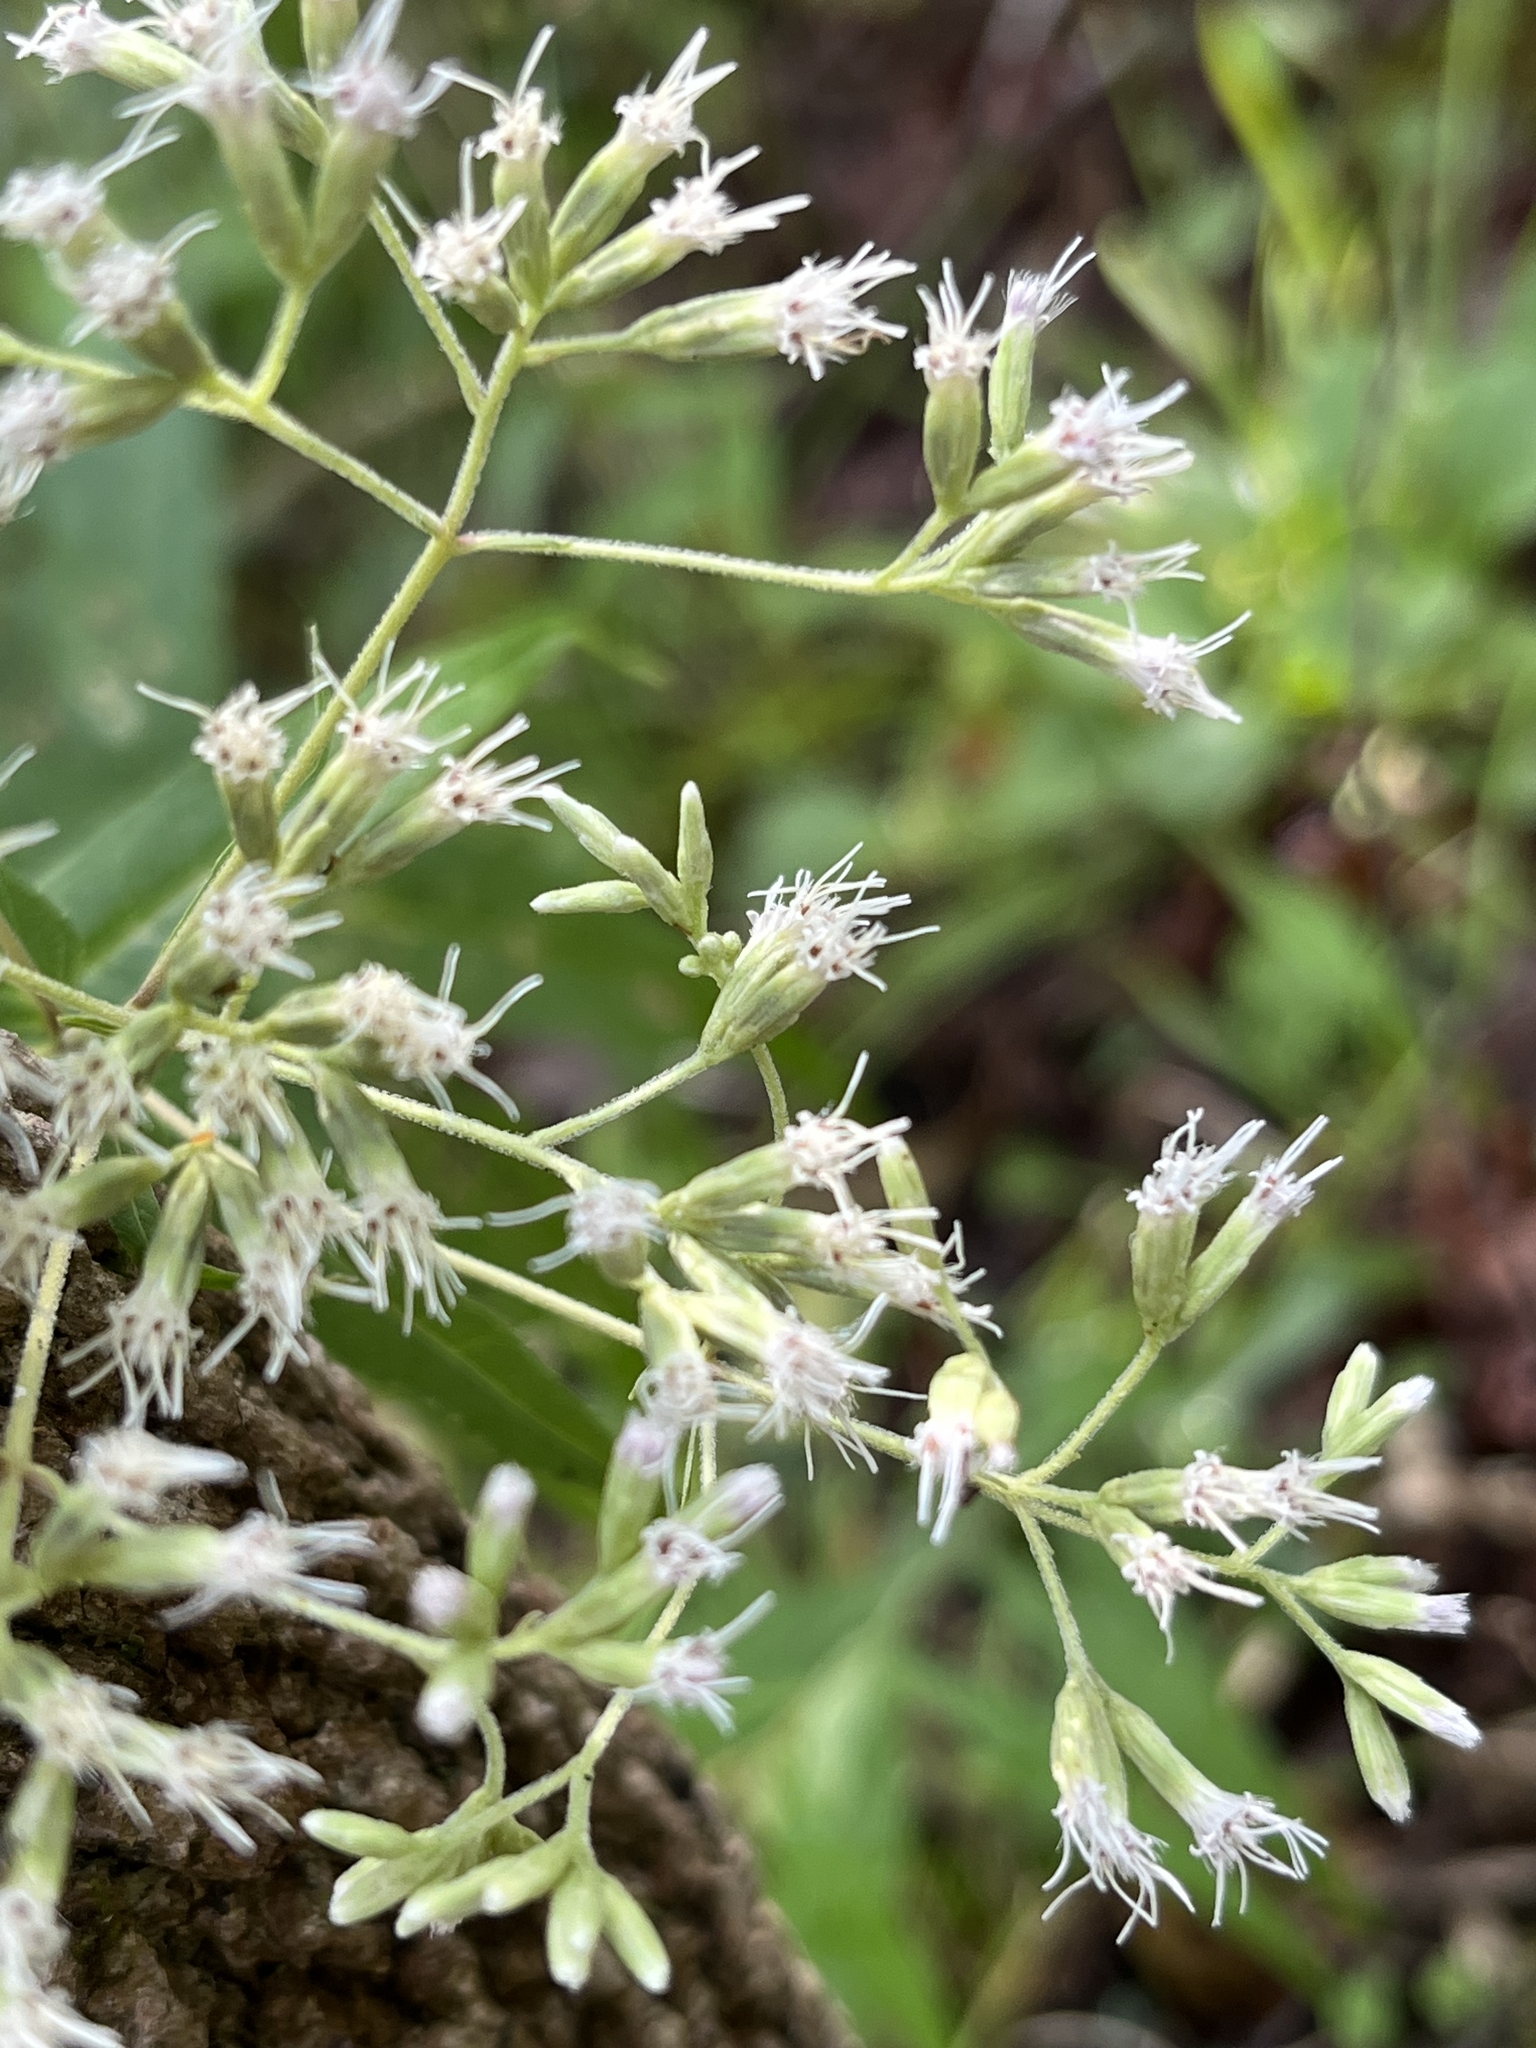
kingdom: Plantae
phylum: Tracheophyta
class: Magnoliopsida
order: Asterales
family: Asteraceae
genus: Eupatorium
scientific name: Eupatorium sessilifolium
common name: Upland boneset
